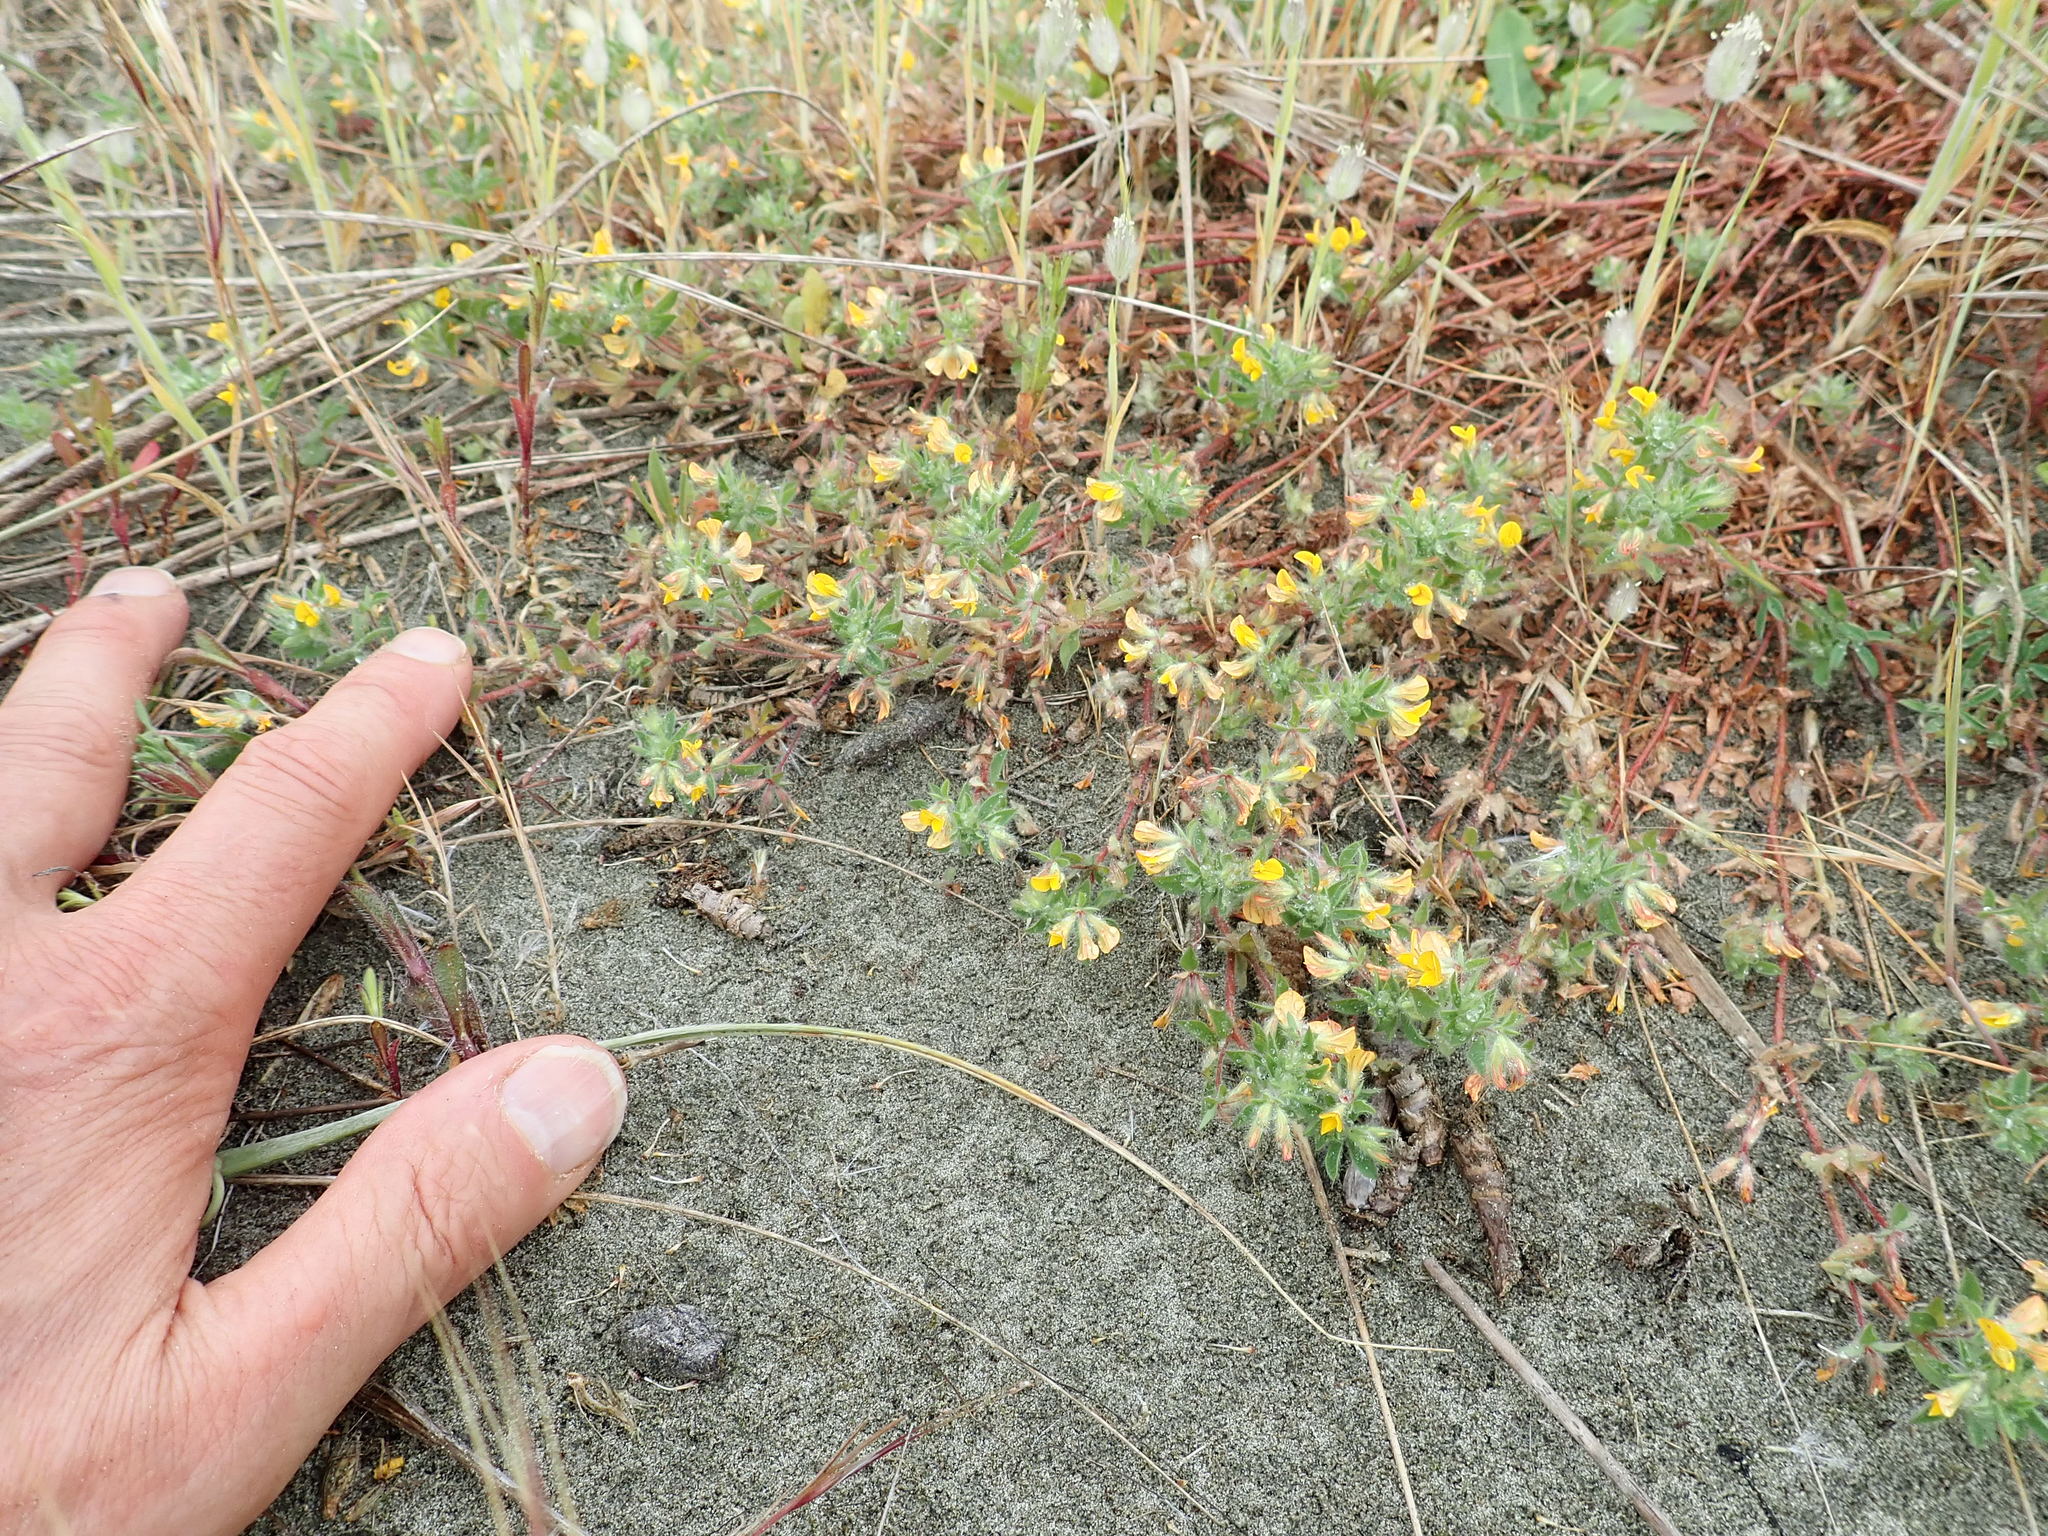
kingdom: Plantae
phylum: Tracheophyta
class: Magnoliopsida
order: Fabales
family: Fabaceae
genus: Lotus
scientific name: Lotus subbiflorus
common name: Hairy bird's-foot trefoil
